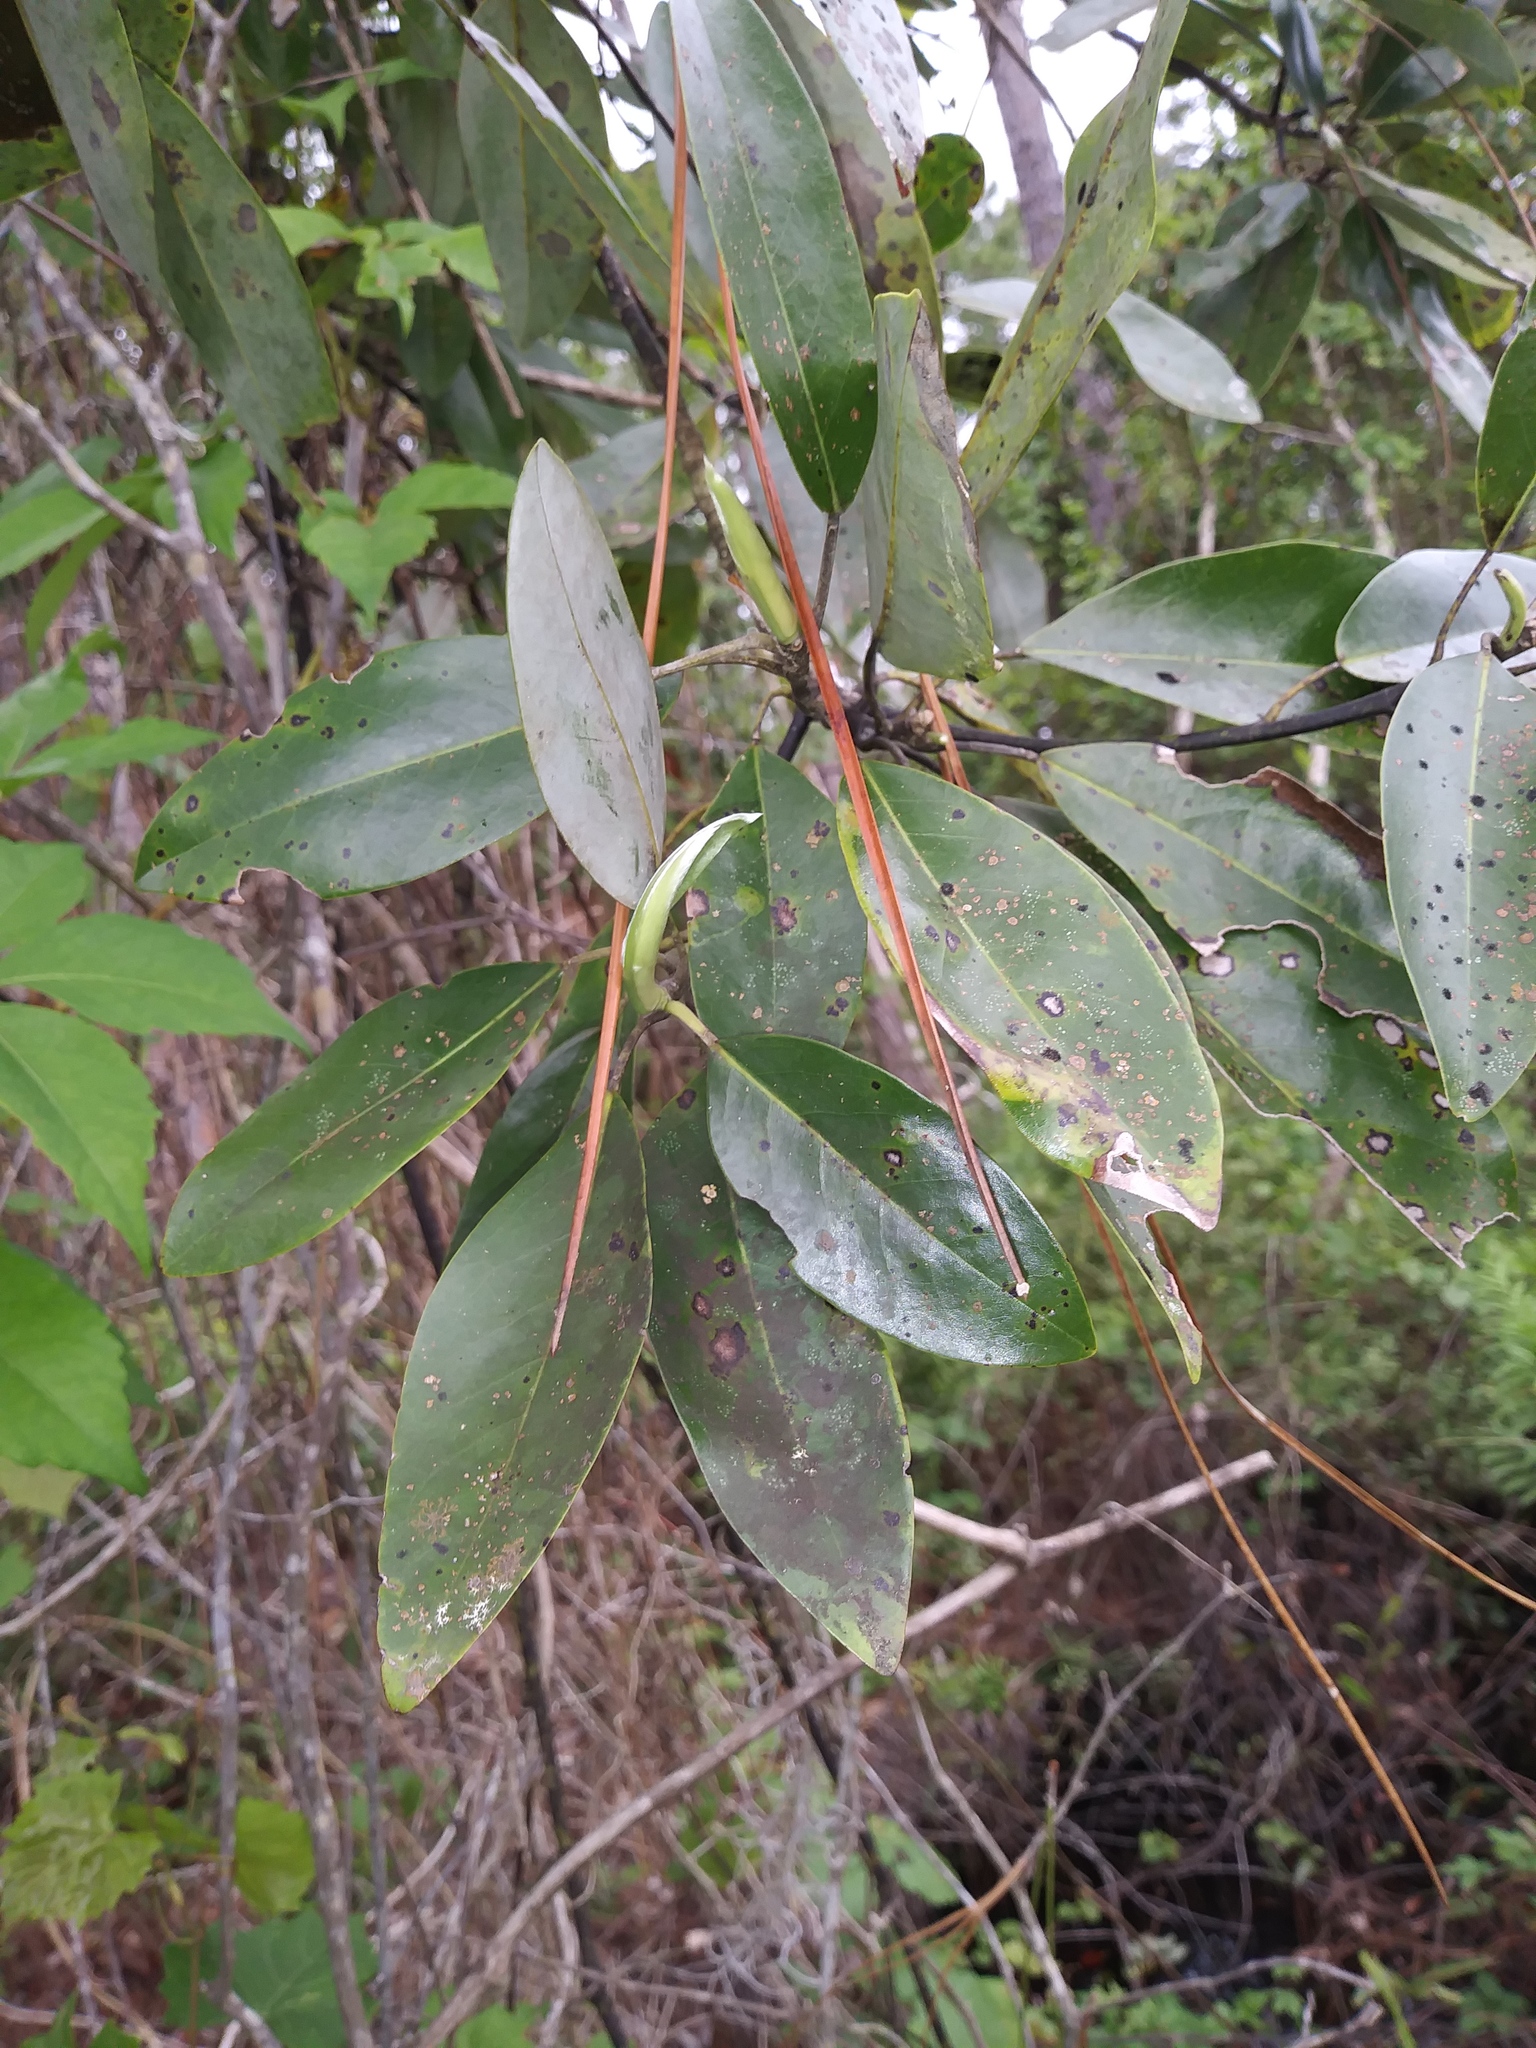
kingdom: Plantae
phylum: Tracheophyta
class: Magnoliopsida
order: Magnoliales
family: Magnoliaceae
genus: Magnolia
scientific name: Magnolia virginiana
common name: Swamp bay
